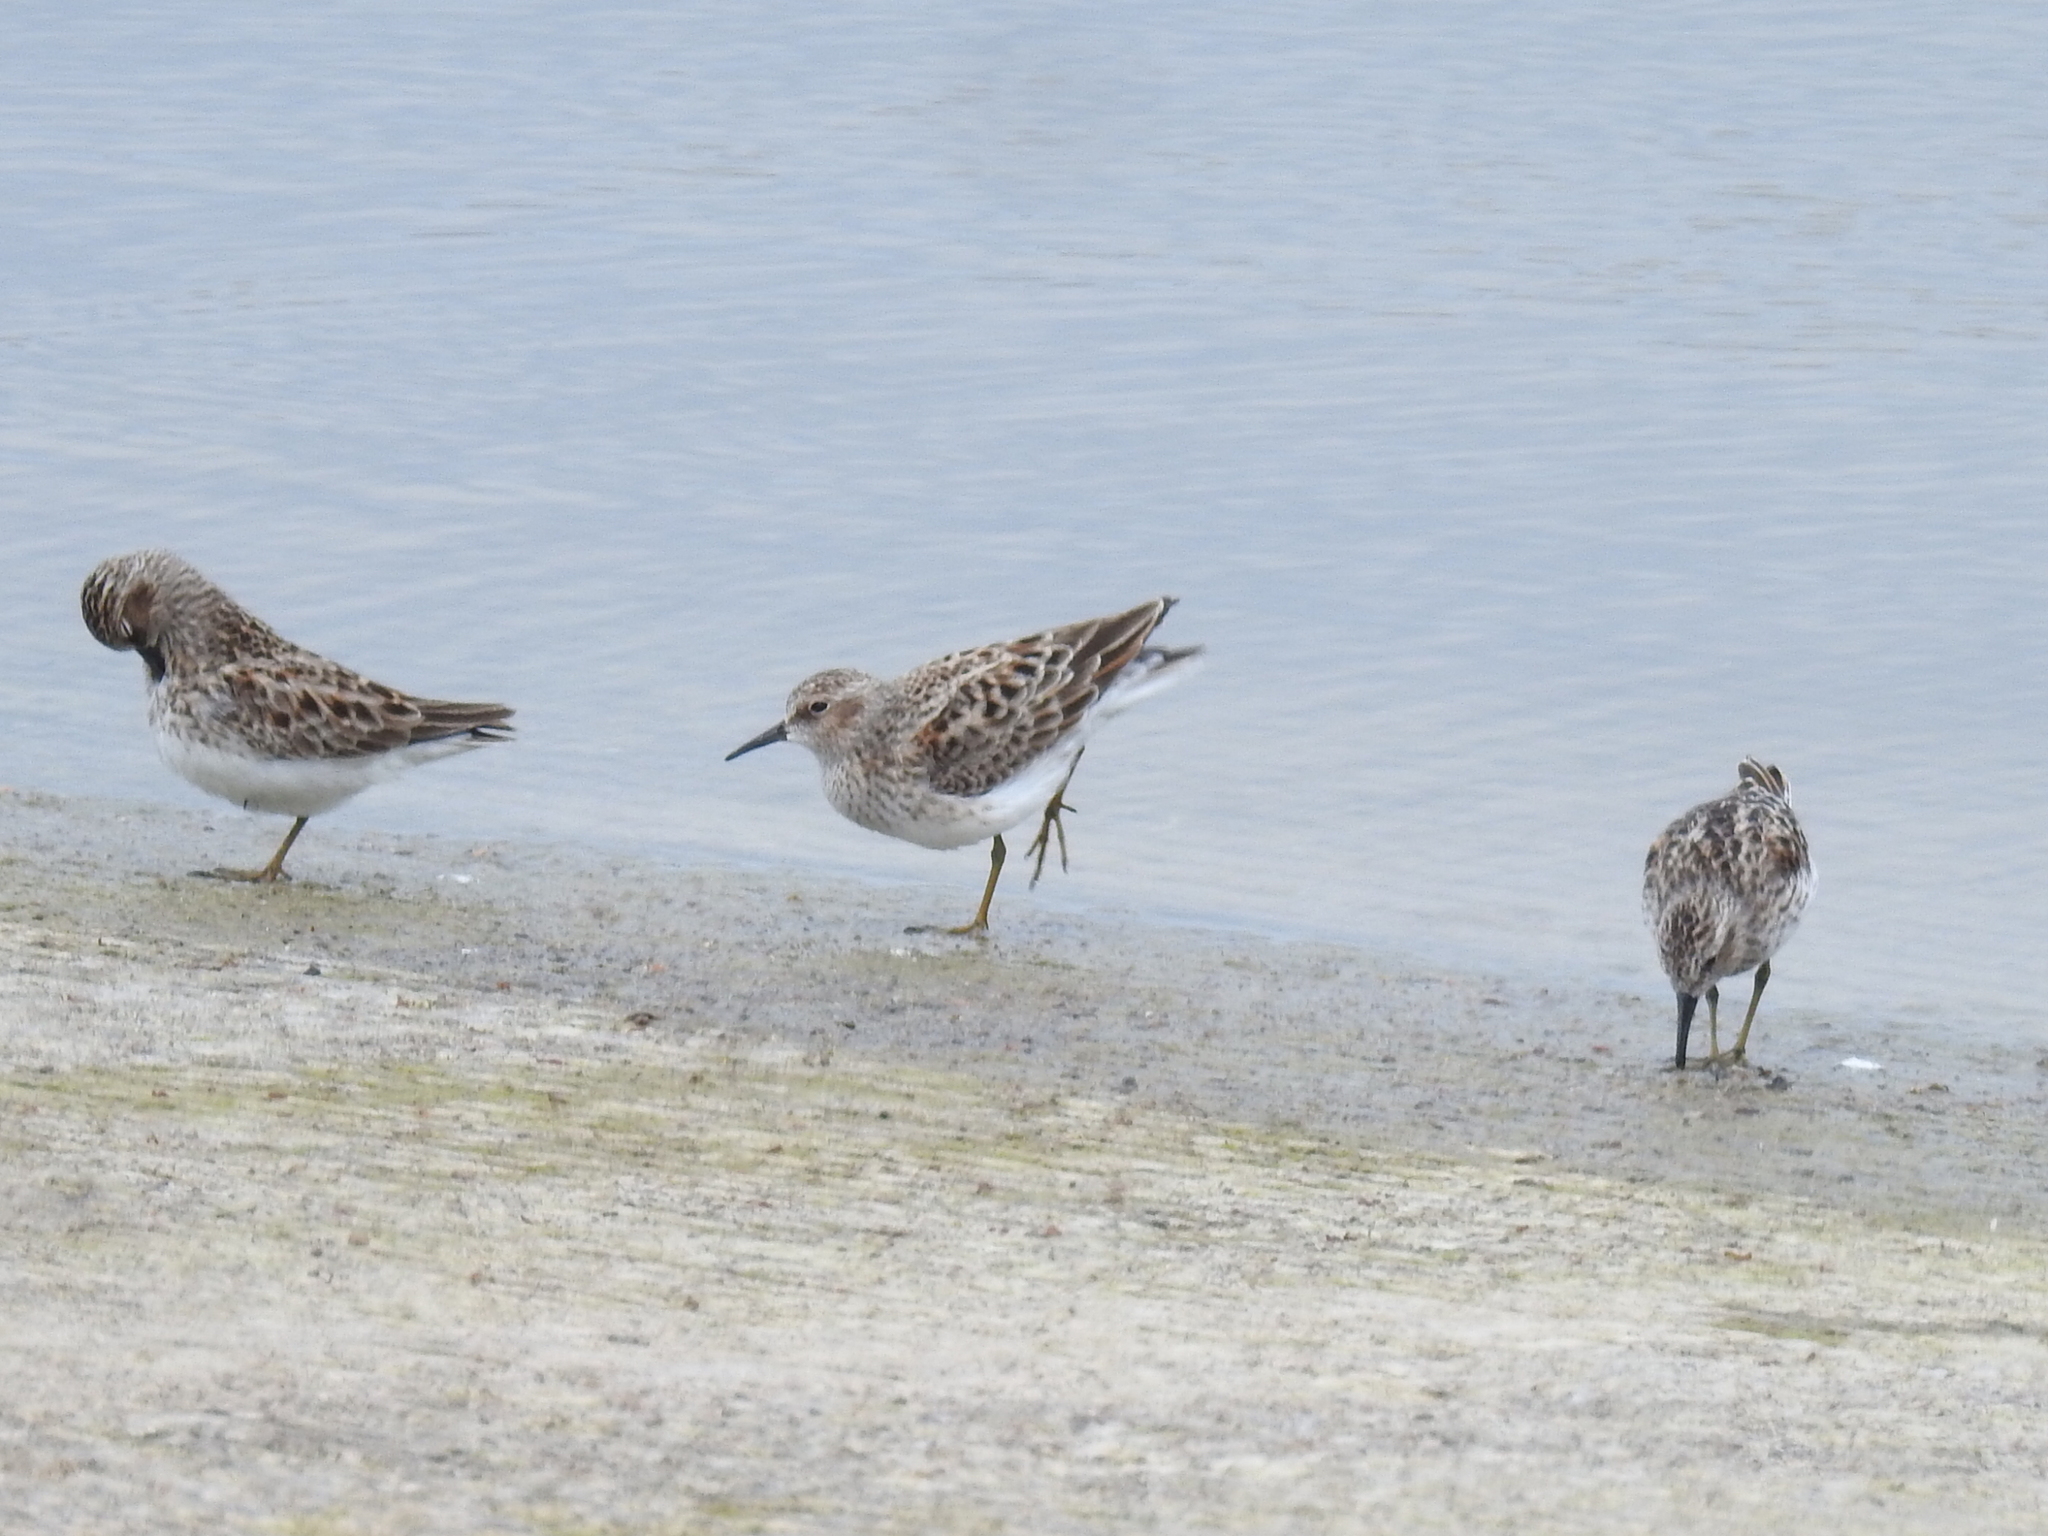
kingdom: Animalia
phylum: Chordata
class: Aves
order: Charadriiformes
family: Scolopacidae
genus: Calidris
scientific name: Calidris minutilla
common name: Least sandpiper
